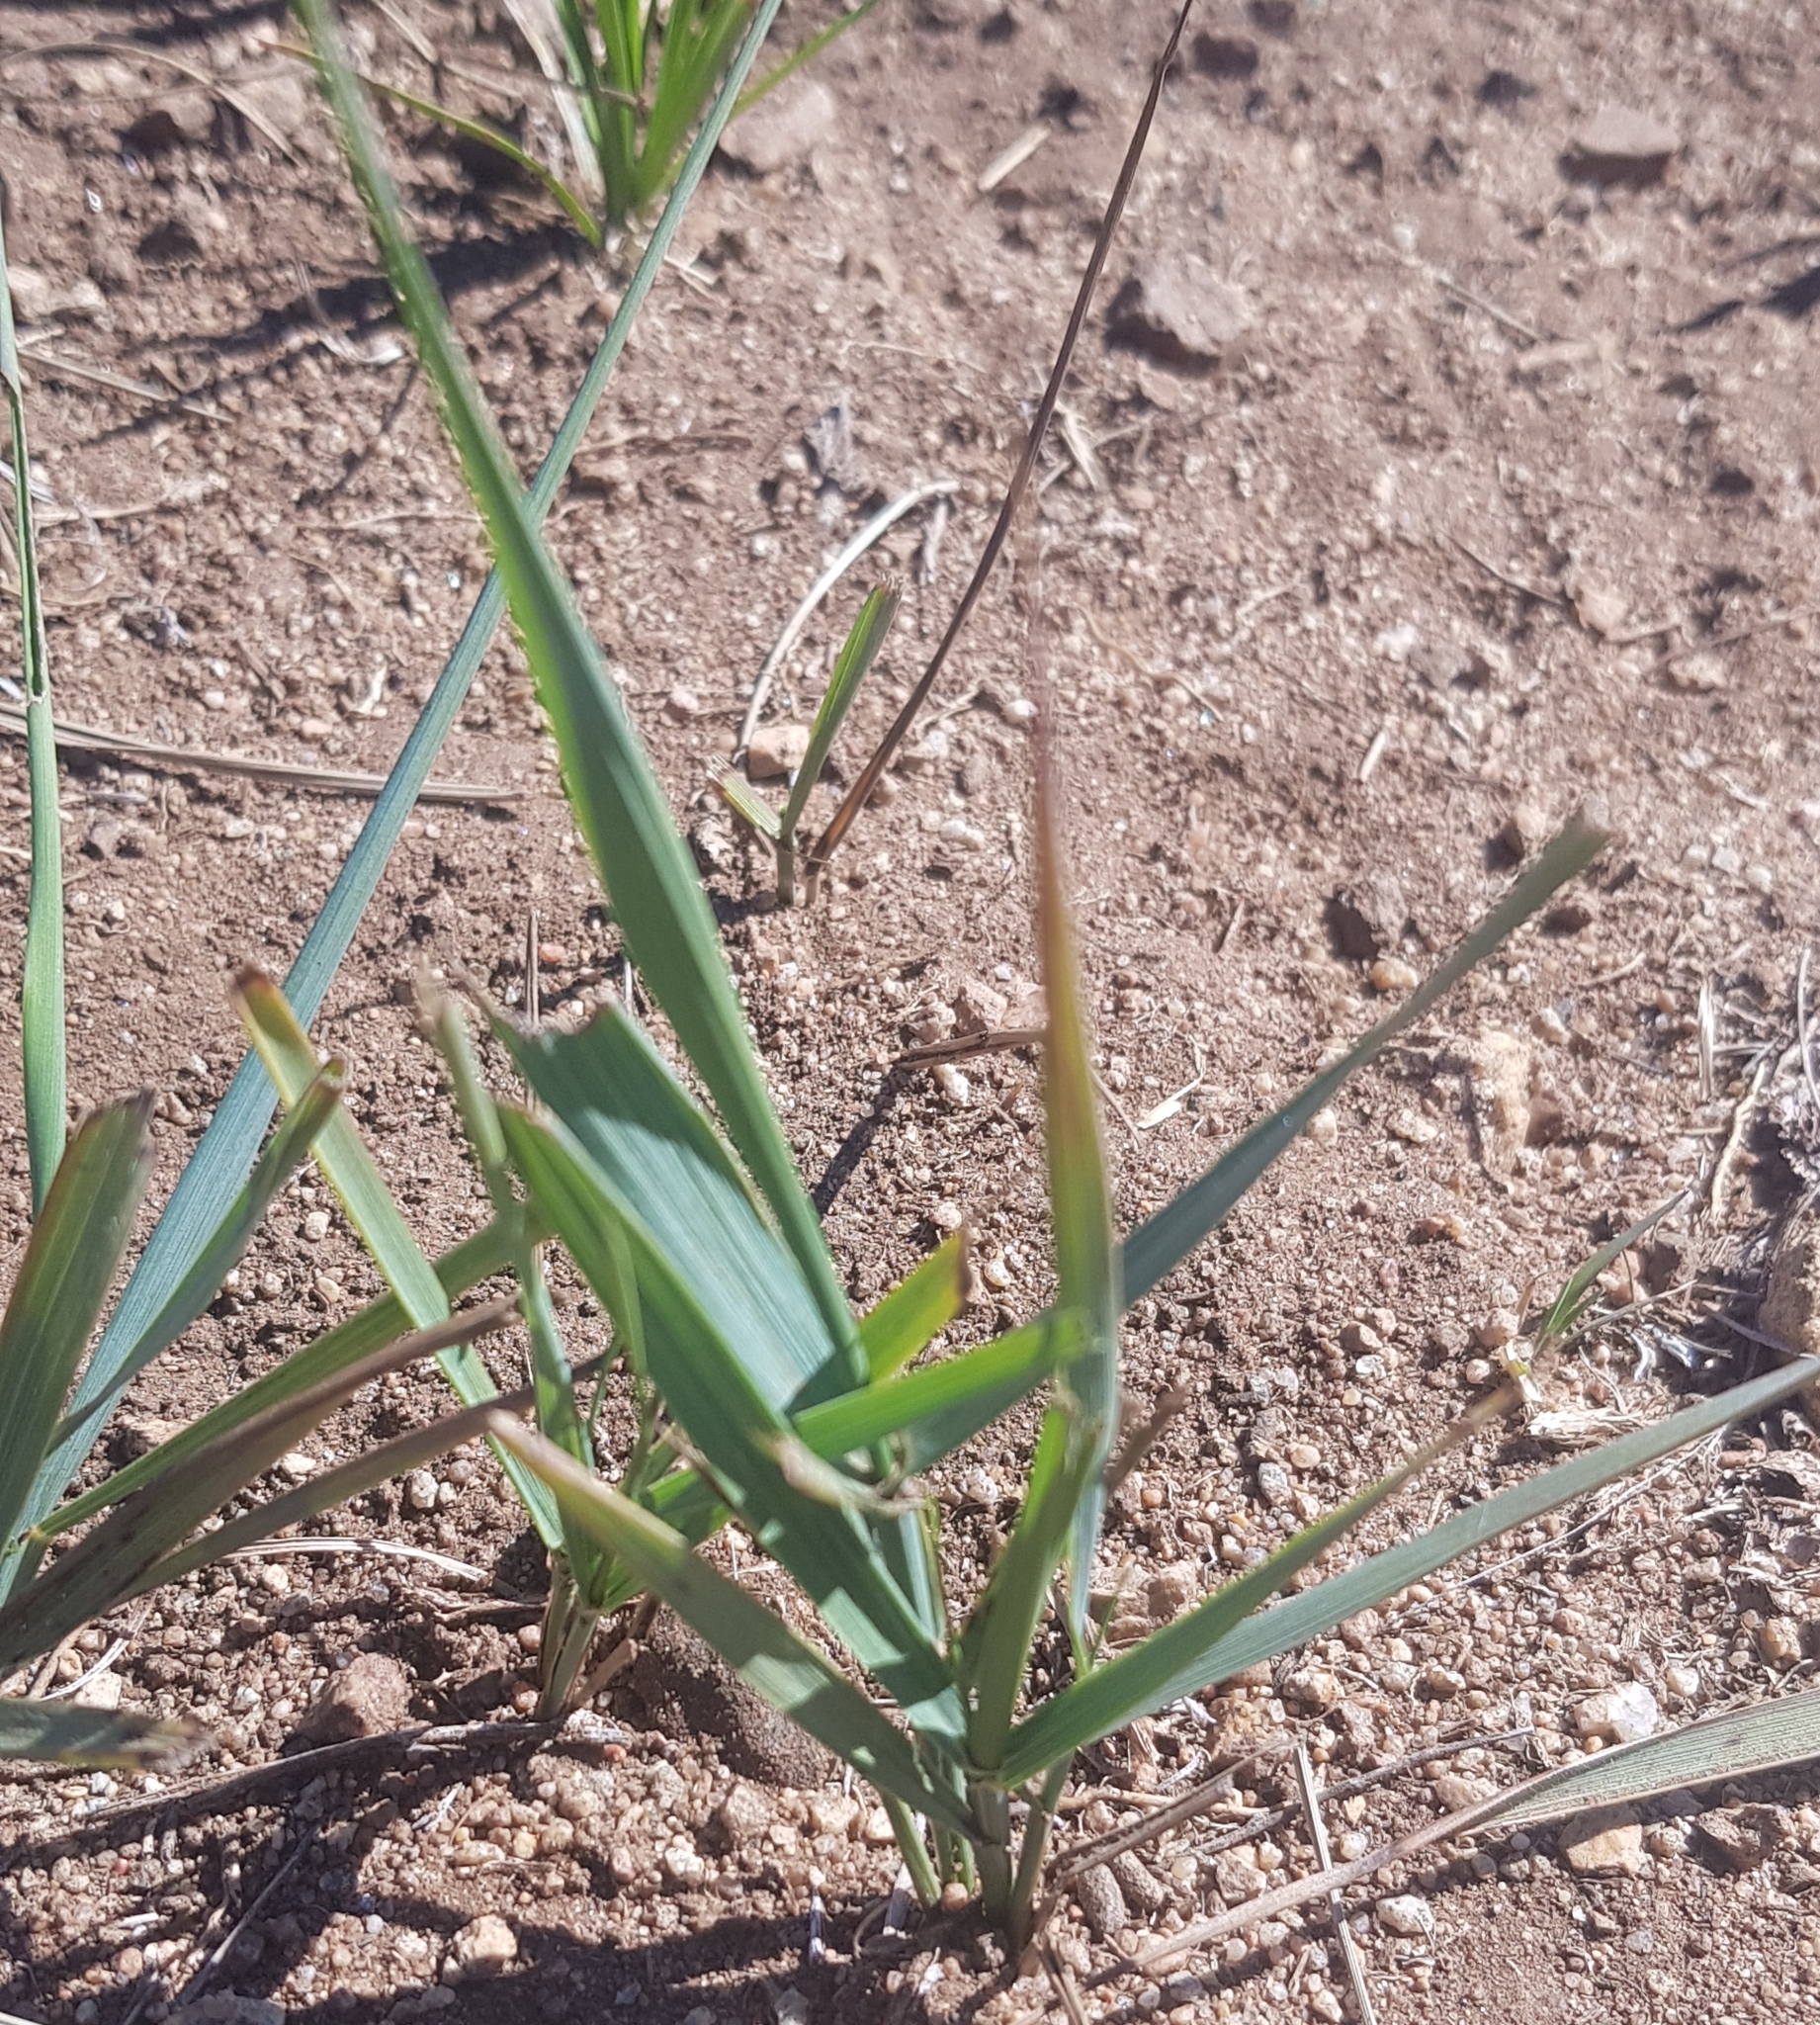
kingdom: Plantae
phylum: Tracheophyta
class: Liliopsida
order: Poales
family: Poaceae
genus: Leymus
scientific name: Leymus racemosus
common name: Mammoth wildrye
